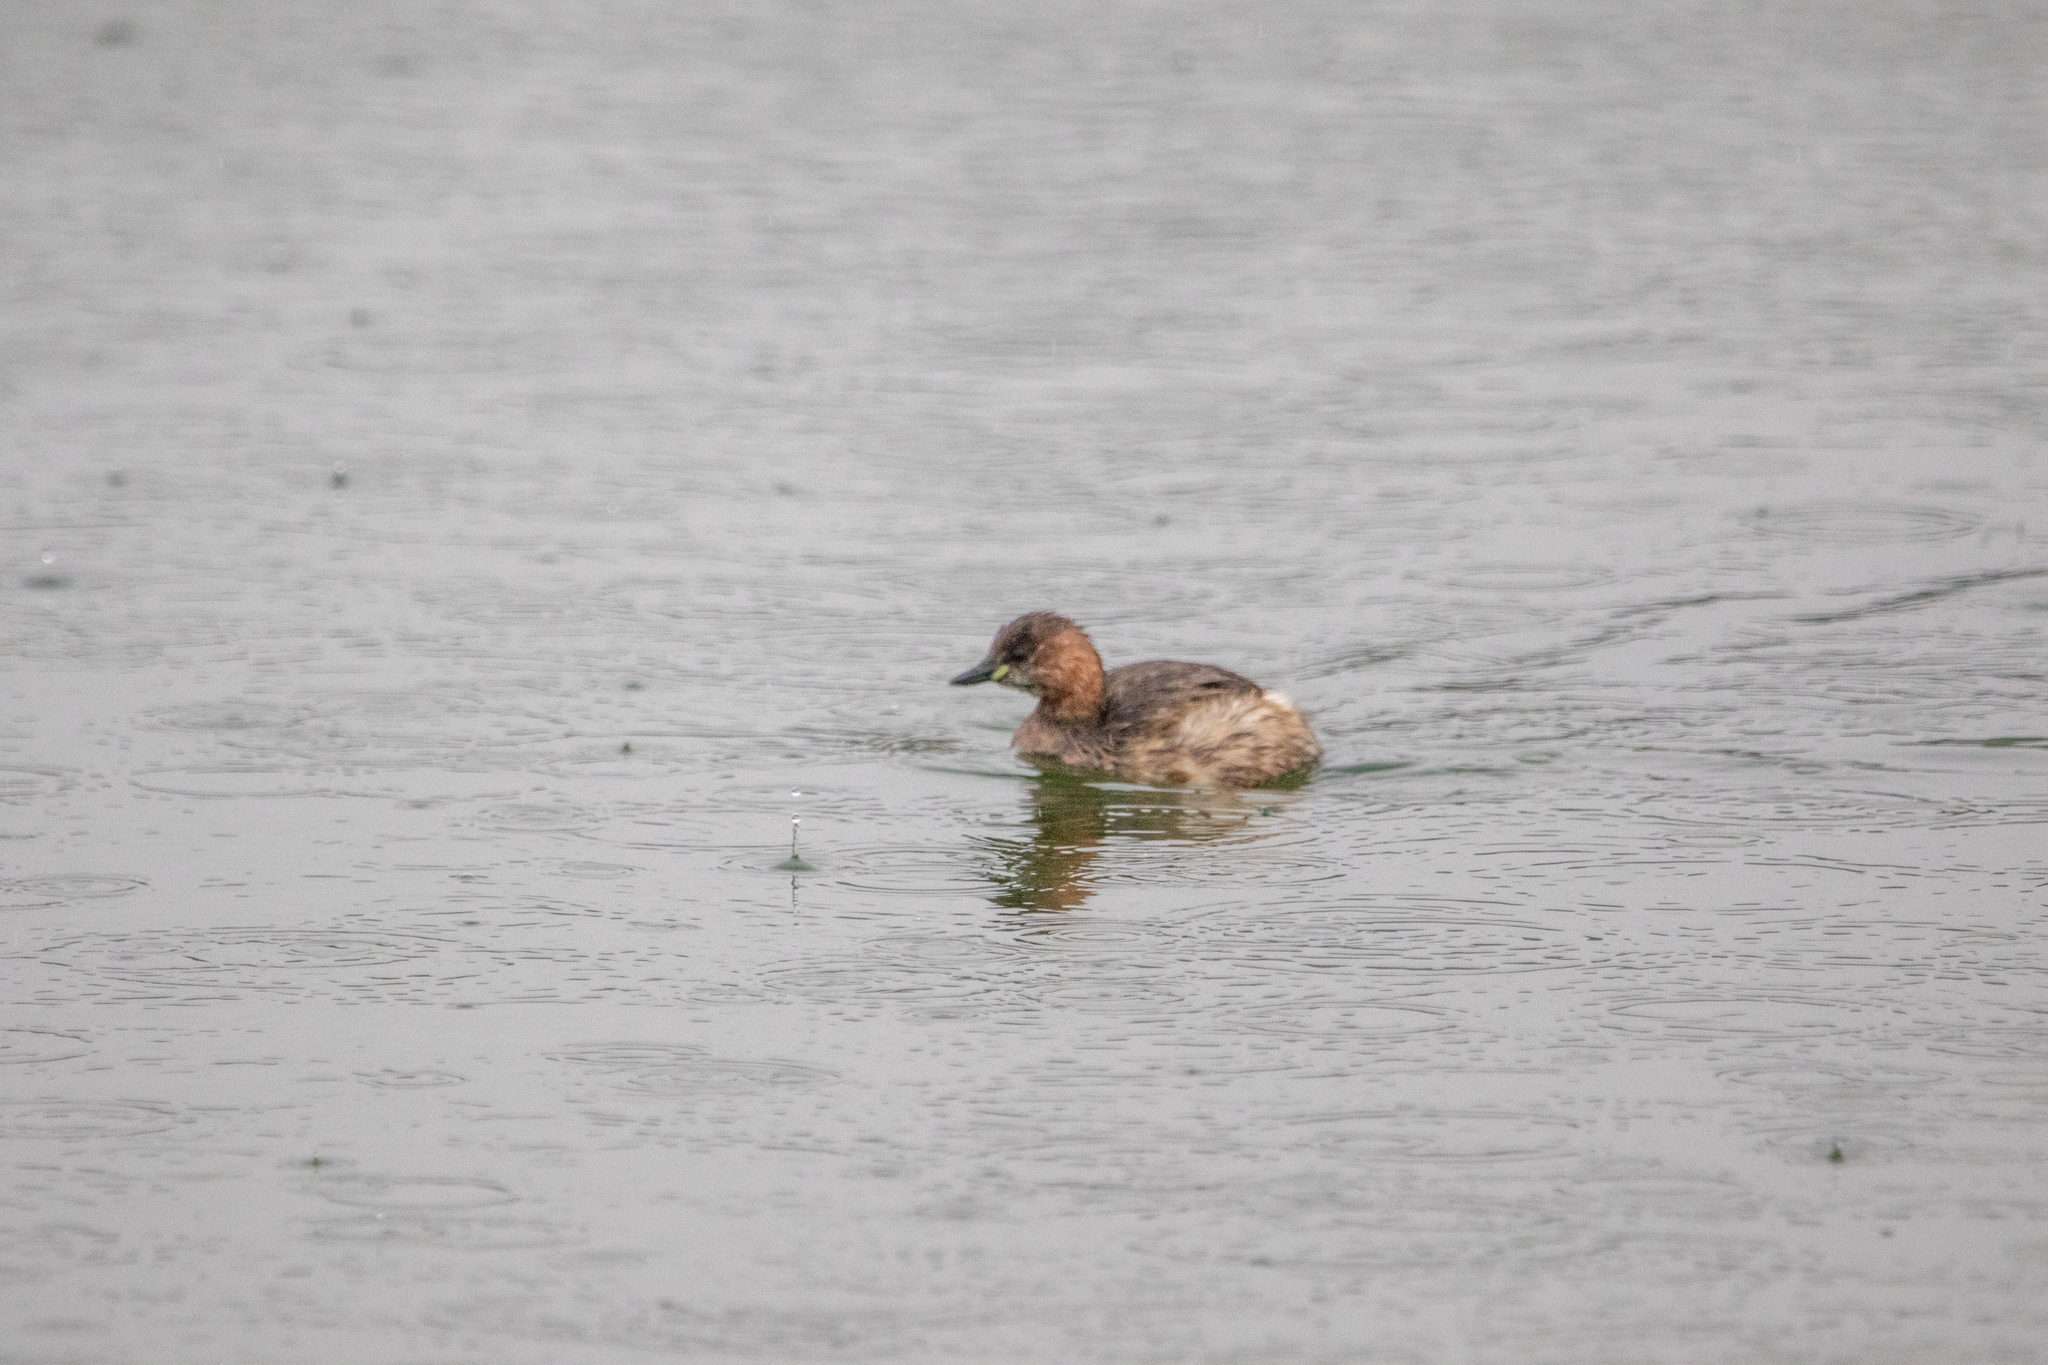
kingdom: Animalia
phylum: Chordata
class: Aves
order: Podicipediformes
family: Podicipedidae
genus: Tachybaptus
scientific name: Tachybaptus ruficollis
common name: Little grebe
